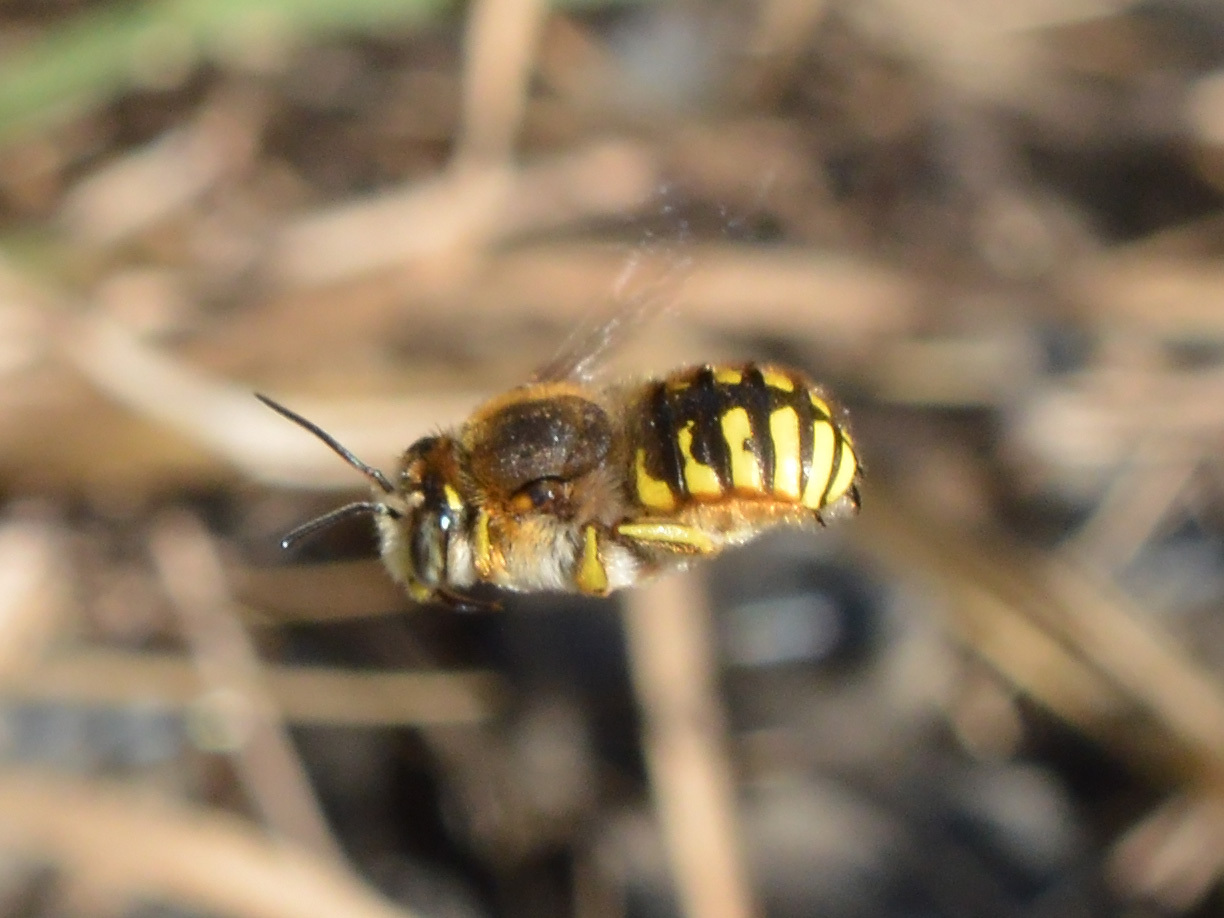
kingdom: Animalia
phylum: Arthropoda
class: Insecta
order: Hymenoptera
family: Megachilidae
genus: Anthidium
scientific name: Anthidium manicatum
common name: Wool carder bee
